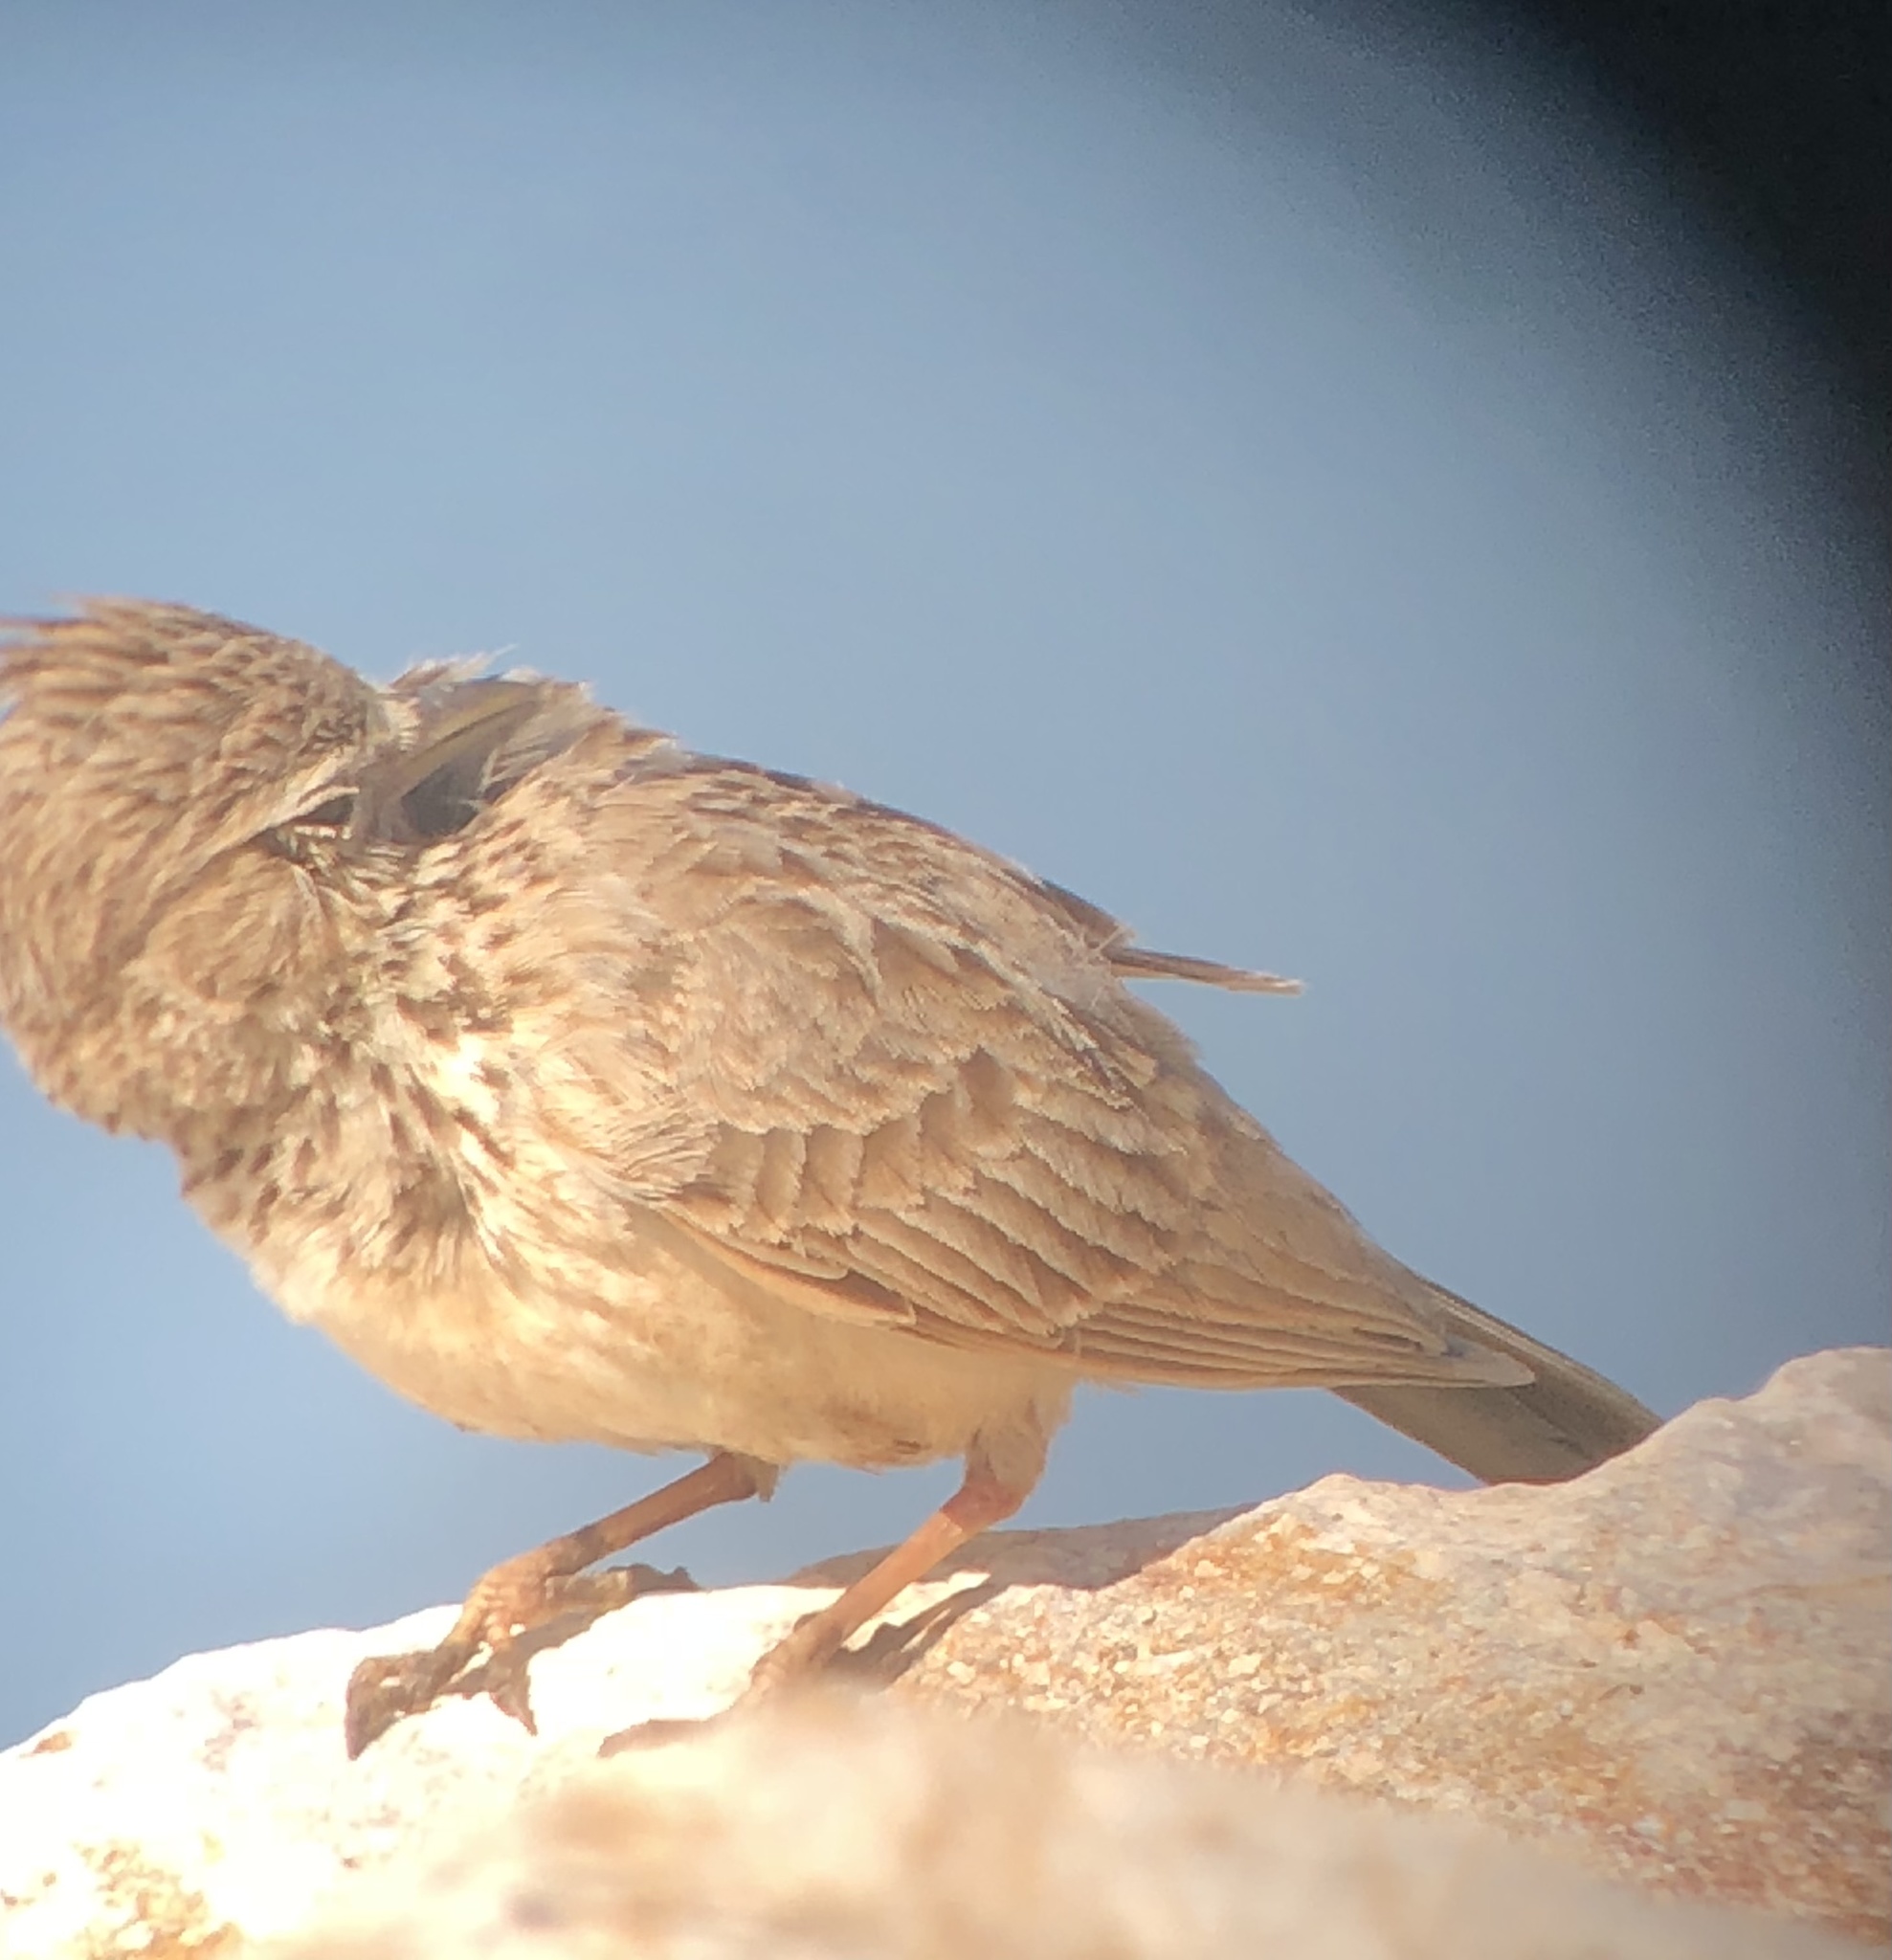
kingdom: Animalia
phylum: Chordata
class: Aves
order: Passeriformes
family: Alaudidae
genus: Galerida
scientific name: Galerida theklae
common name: Thekla lark
